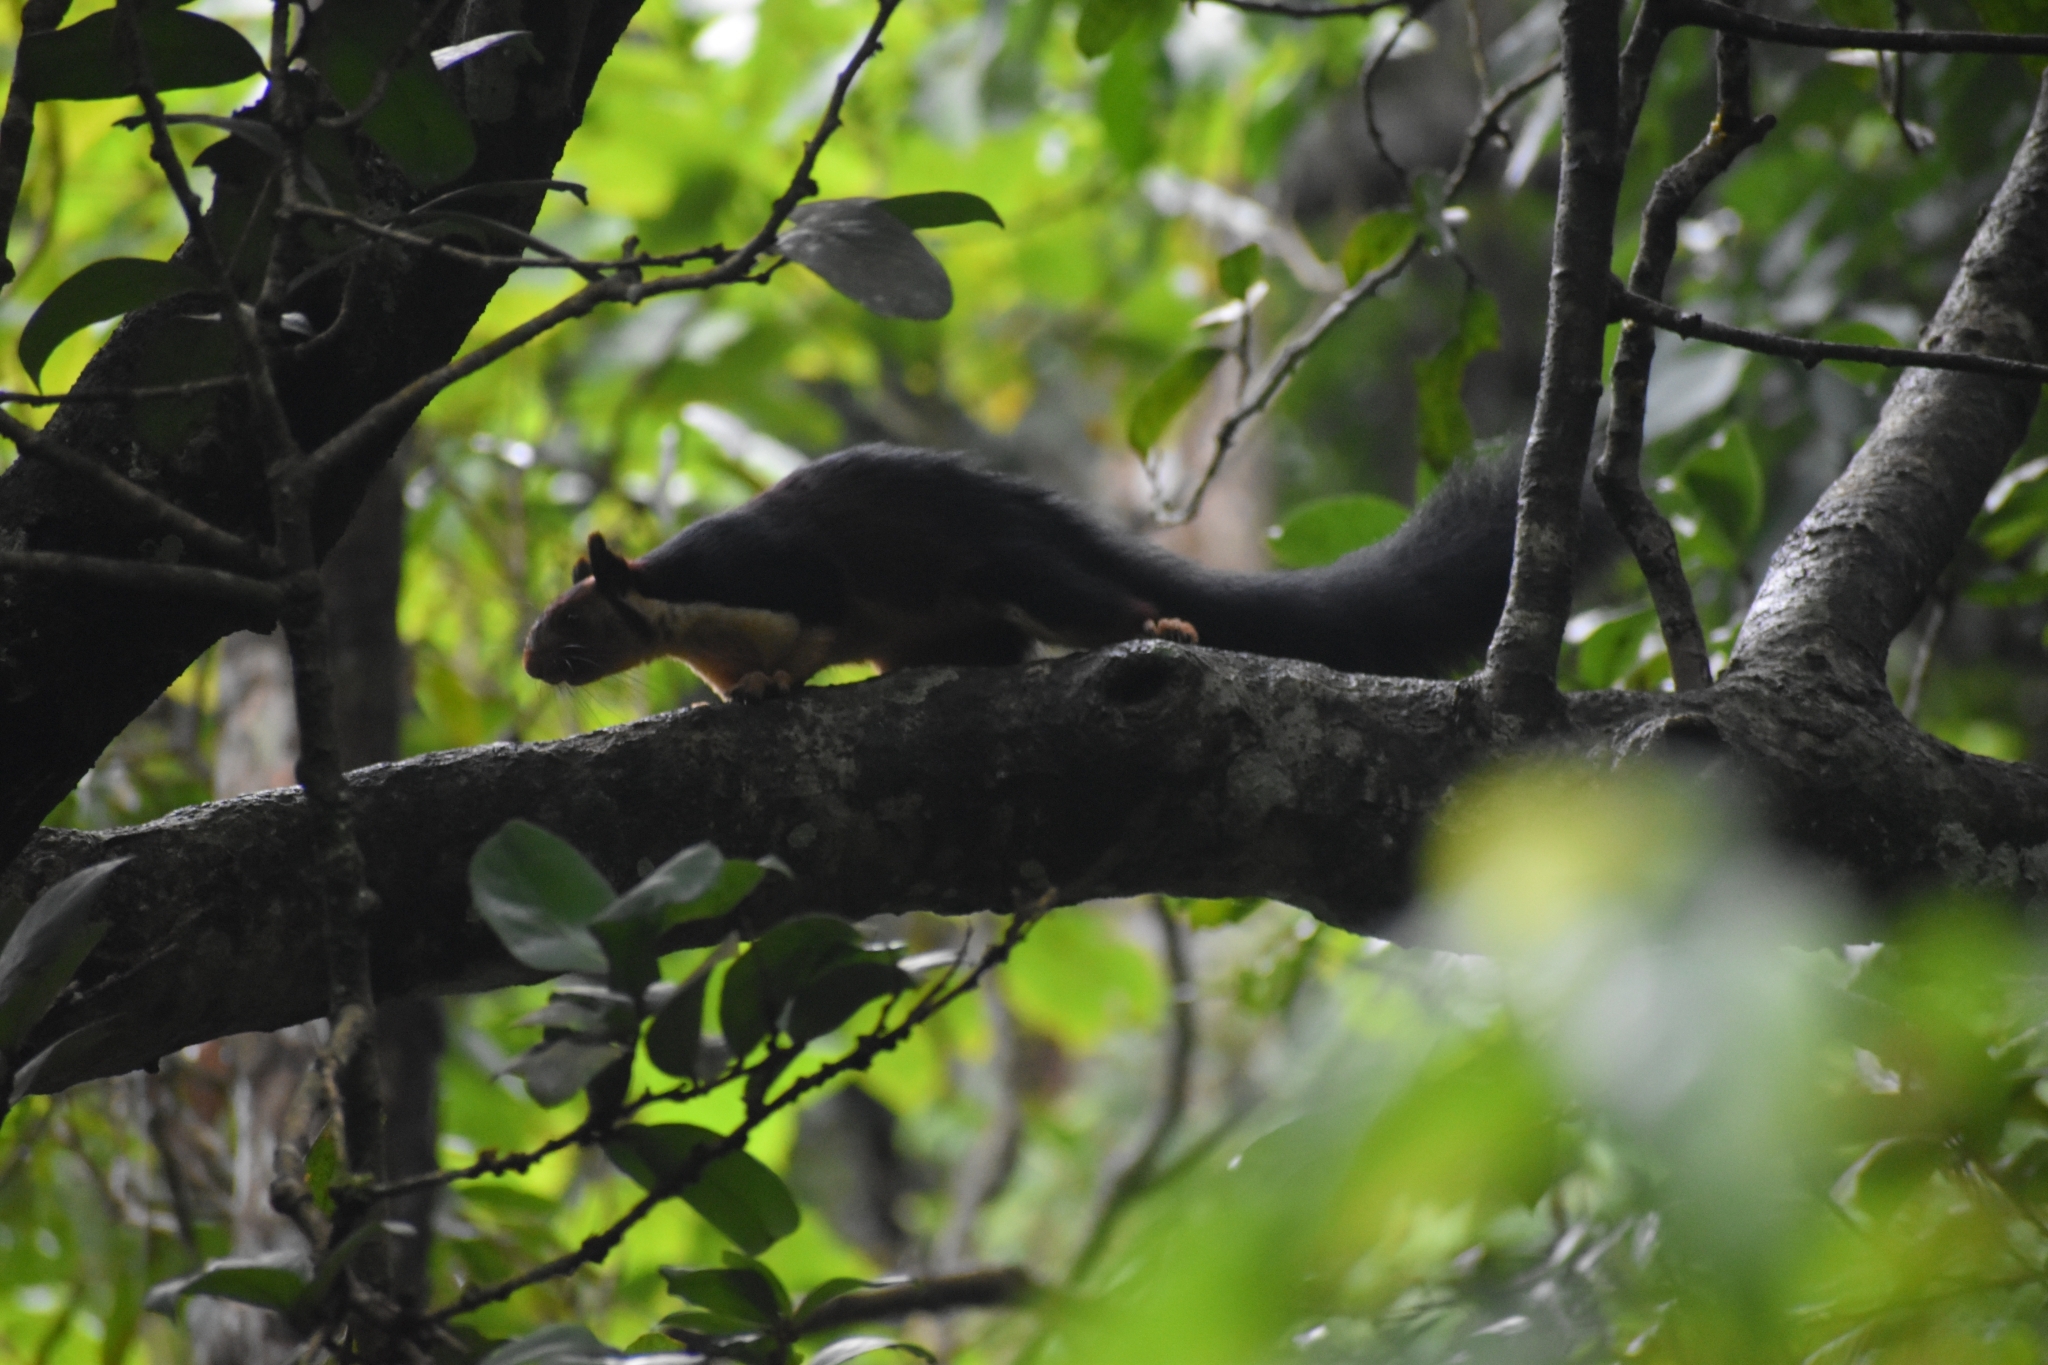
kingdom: Animalia
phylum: Chordata
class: Mammalia
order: Rodentia
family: Sciuridae
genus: Ratufa
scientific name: Ratufa indica
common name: Indian giant squirrel
